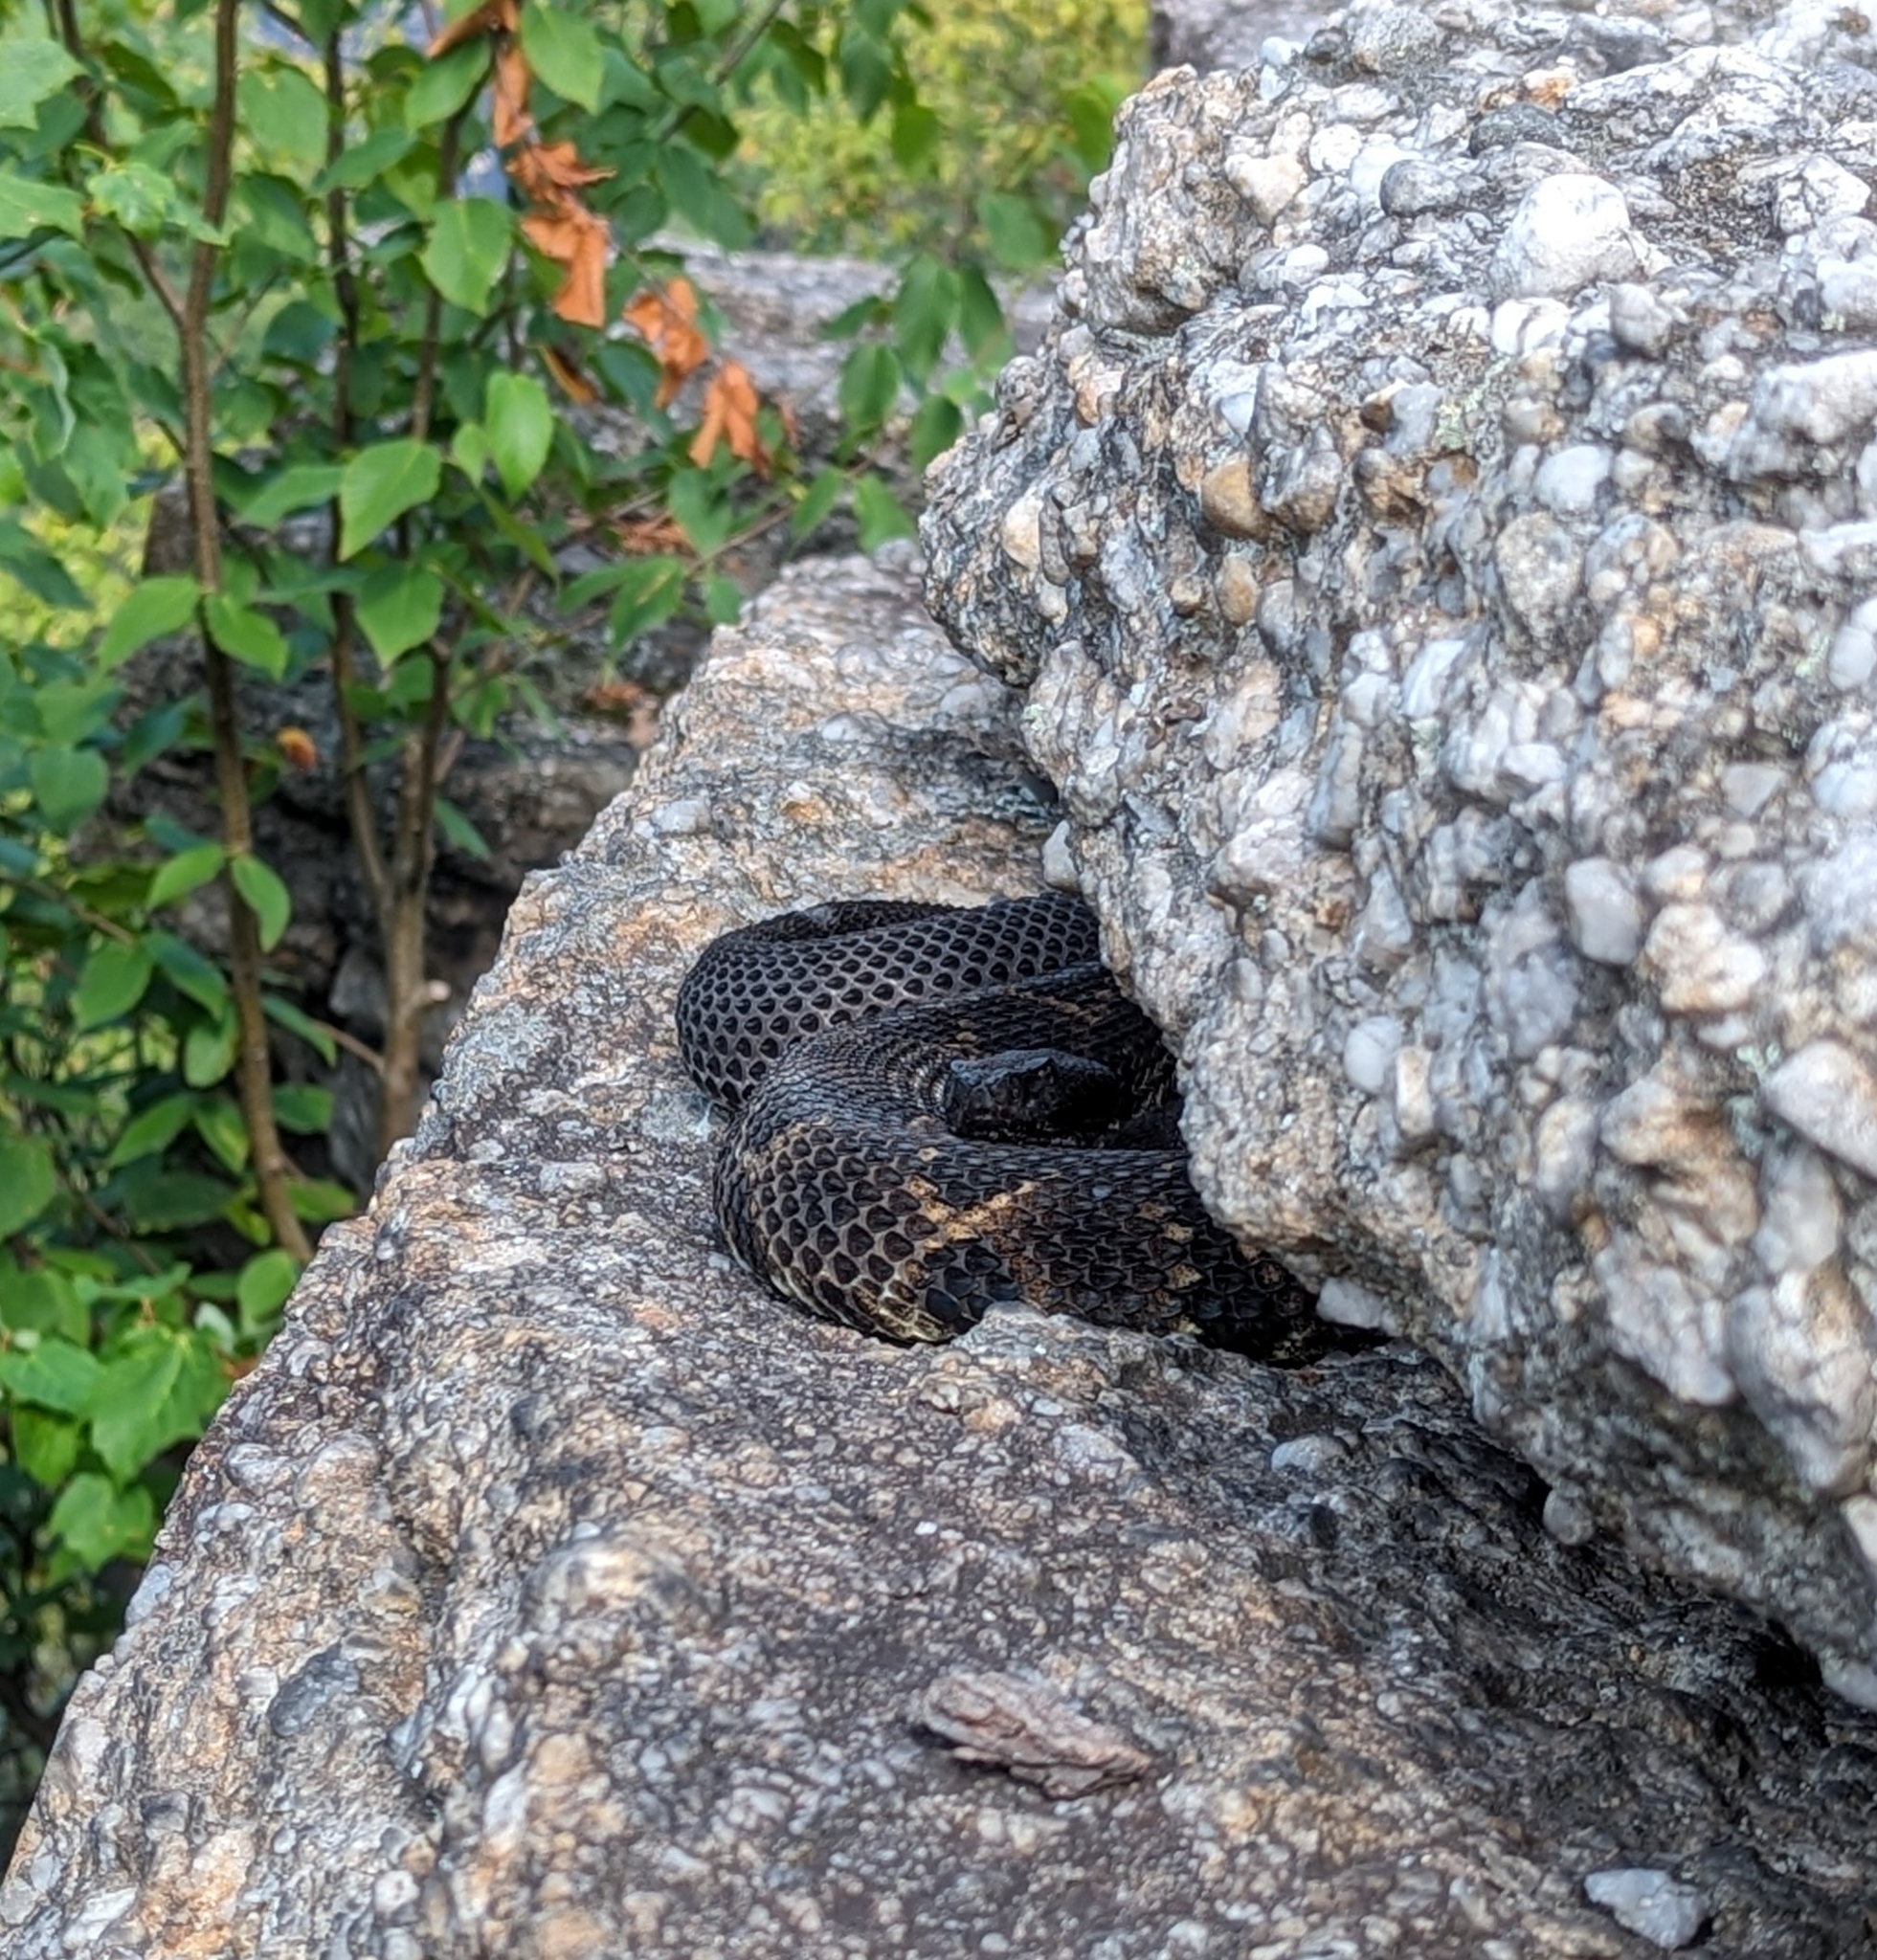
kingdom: Animalia
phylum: Chordata
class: Squamata
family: Viperidae
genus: Crotalus
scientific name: Crotalus horridus
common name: Timber rattlesnake
